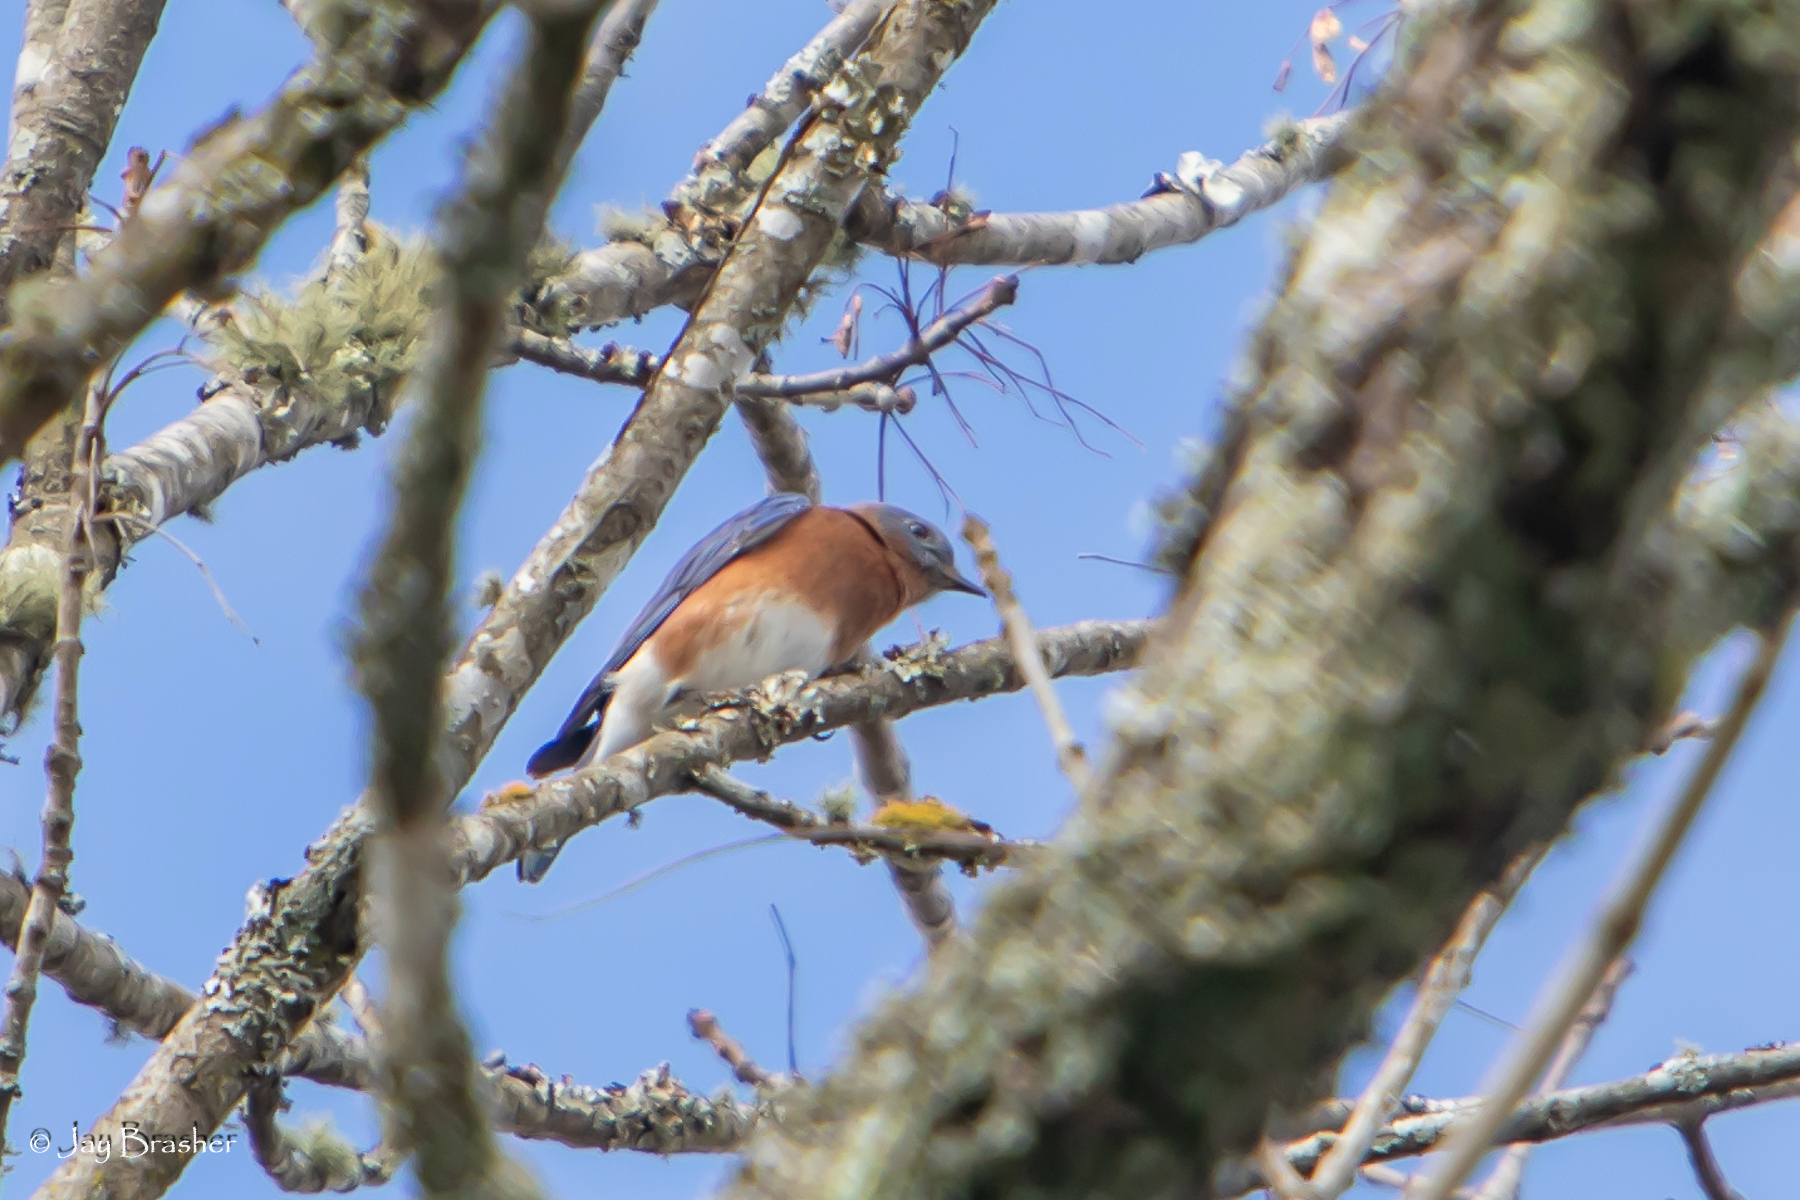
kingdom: Animalia
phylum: Chordata
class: Aves
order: Passeriformes
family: Turdidae
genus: Sialia
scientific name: Sialia sialis
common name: Eastern bluebird
